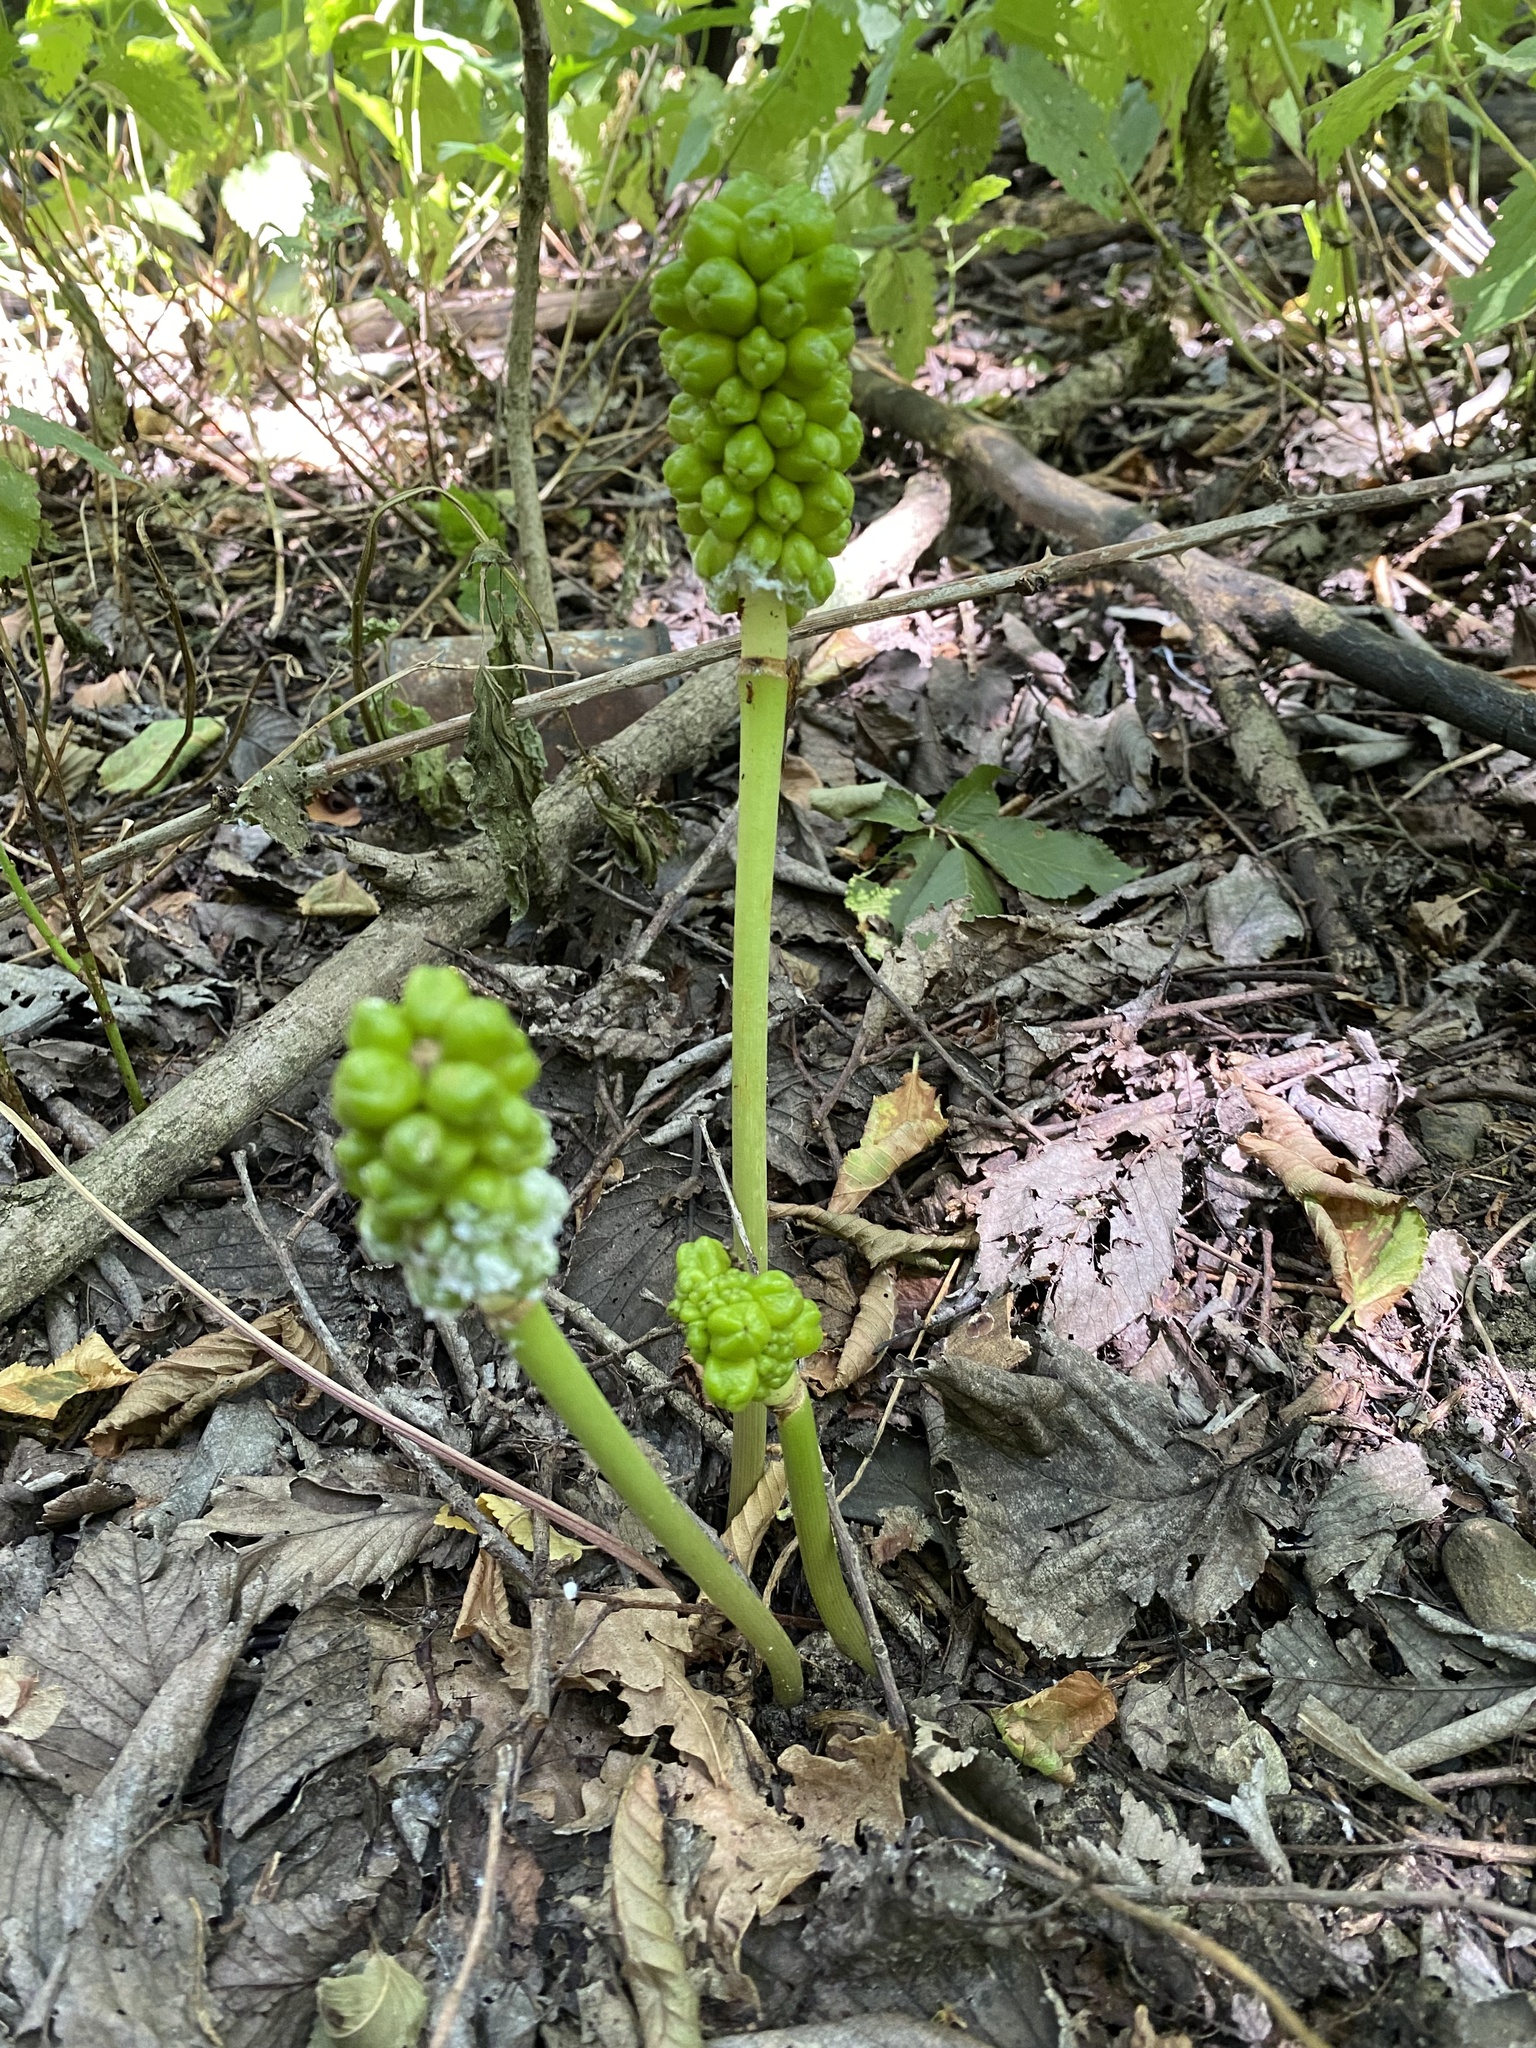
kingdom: Plantae
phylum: Tracheophyta
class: Liliopsida
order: Alismatales
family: Araceae
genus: Arum
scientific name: Arum orientale
